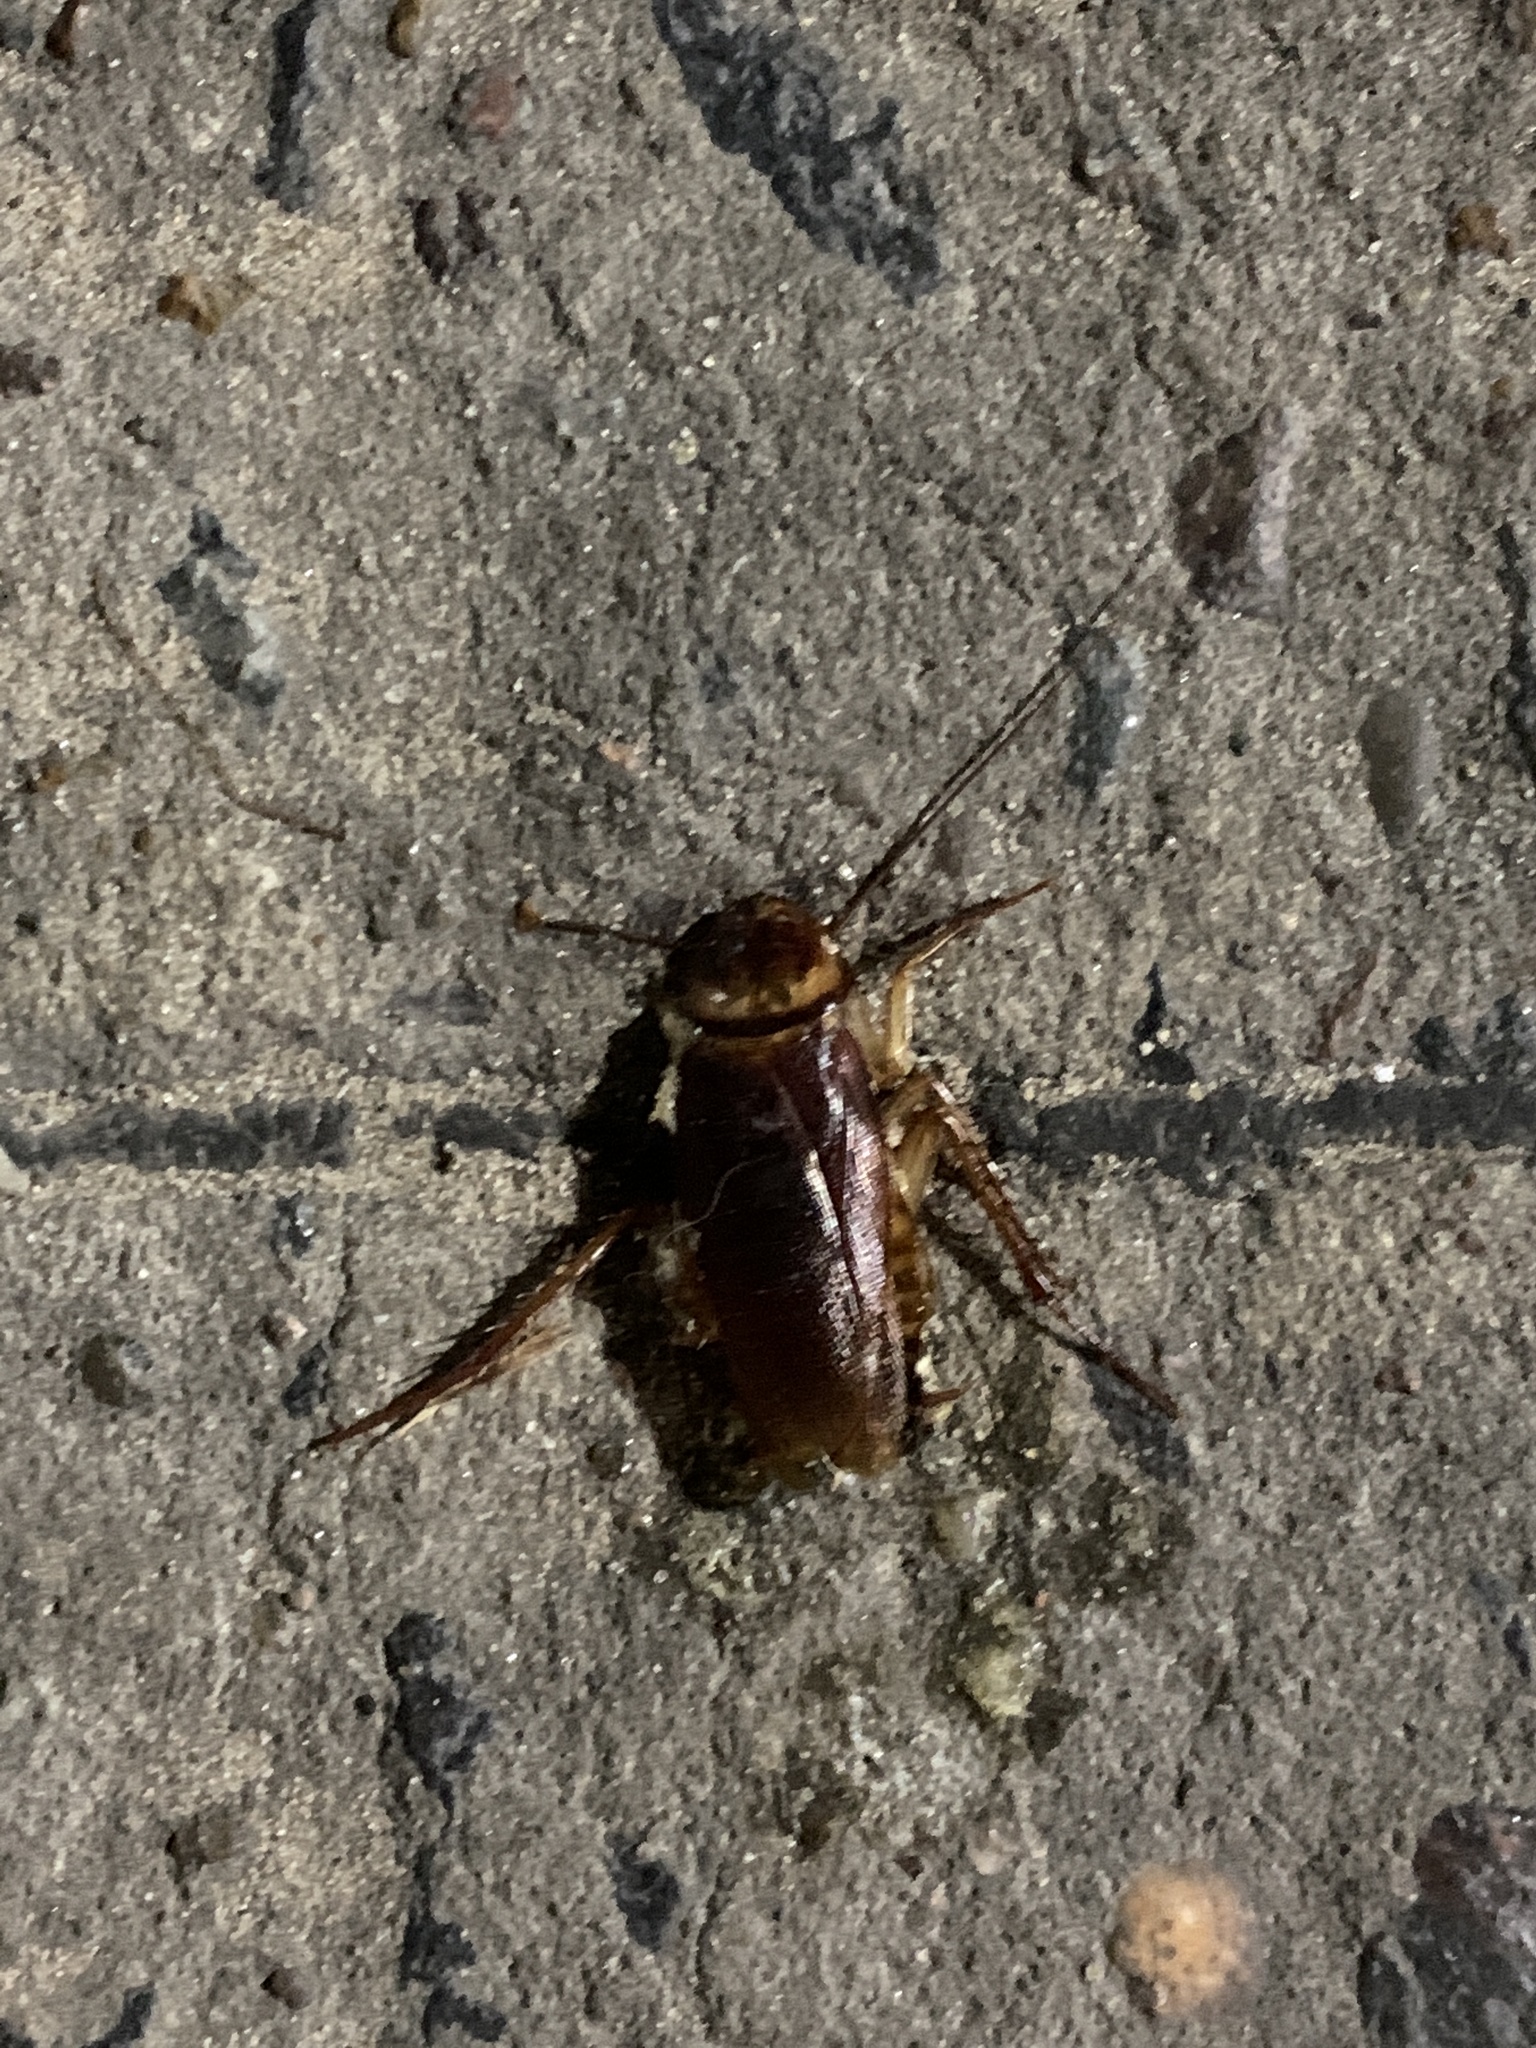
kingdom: Animalia
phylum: Arthropoda
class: Insecta
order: Blattodea
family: Blattidae
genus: Periplaneta
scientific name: Periplaneta americana
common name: American cockroach
